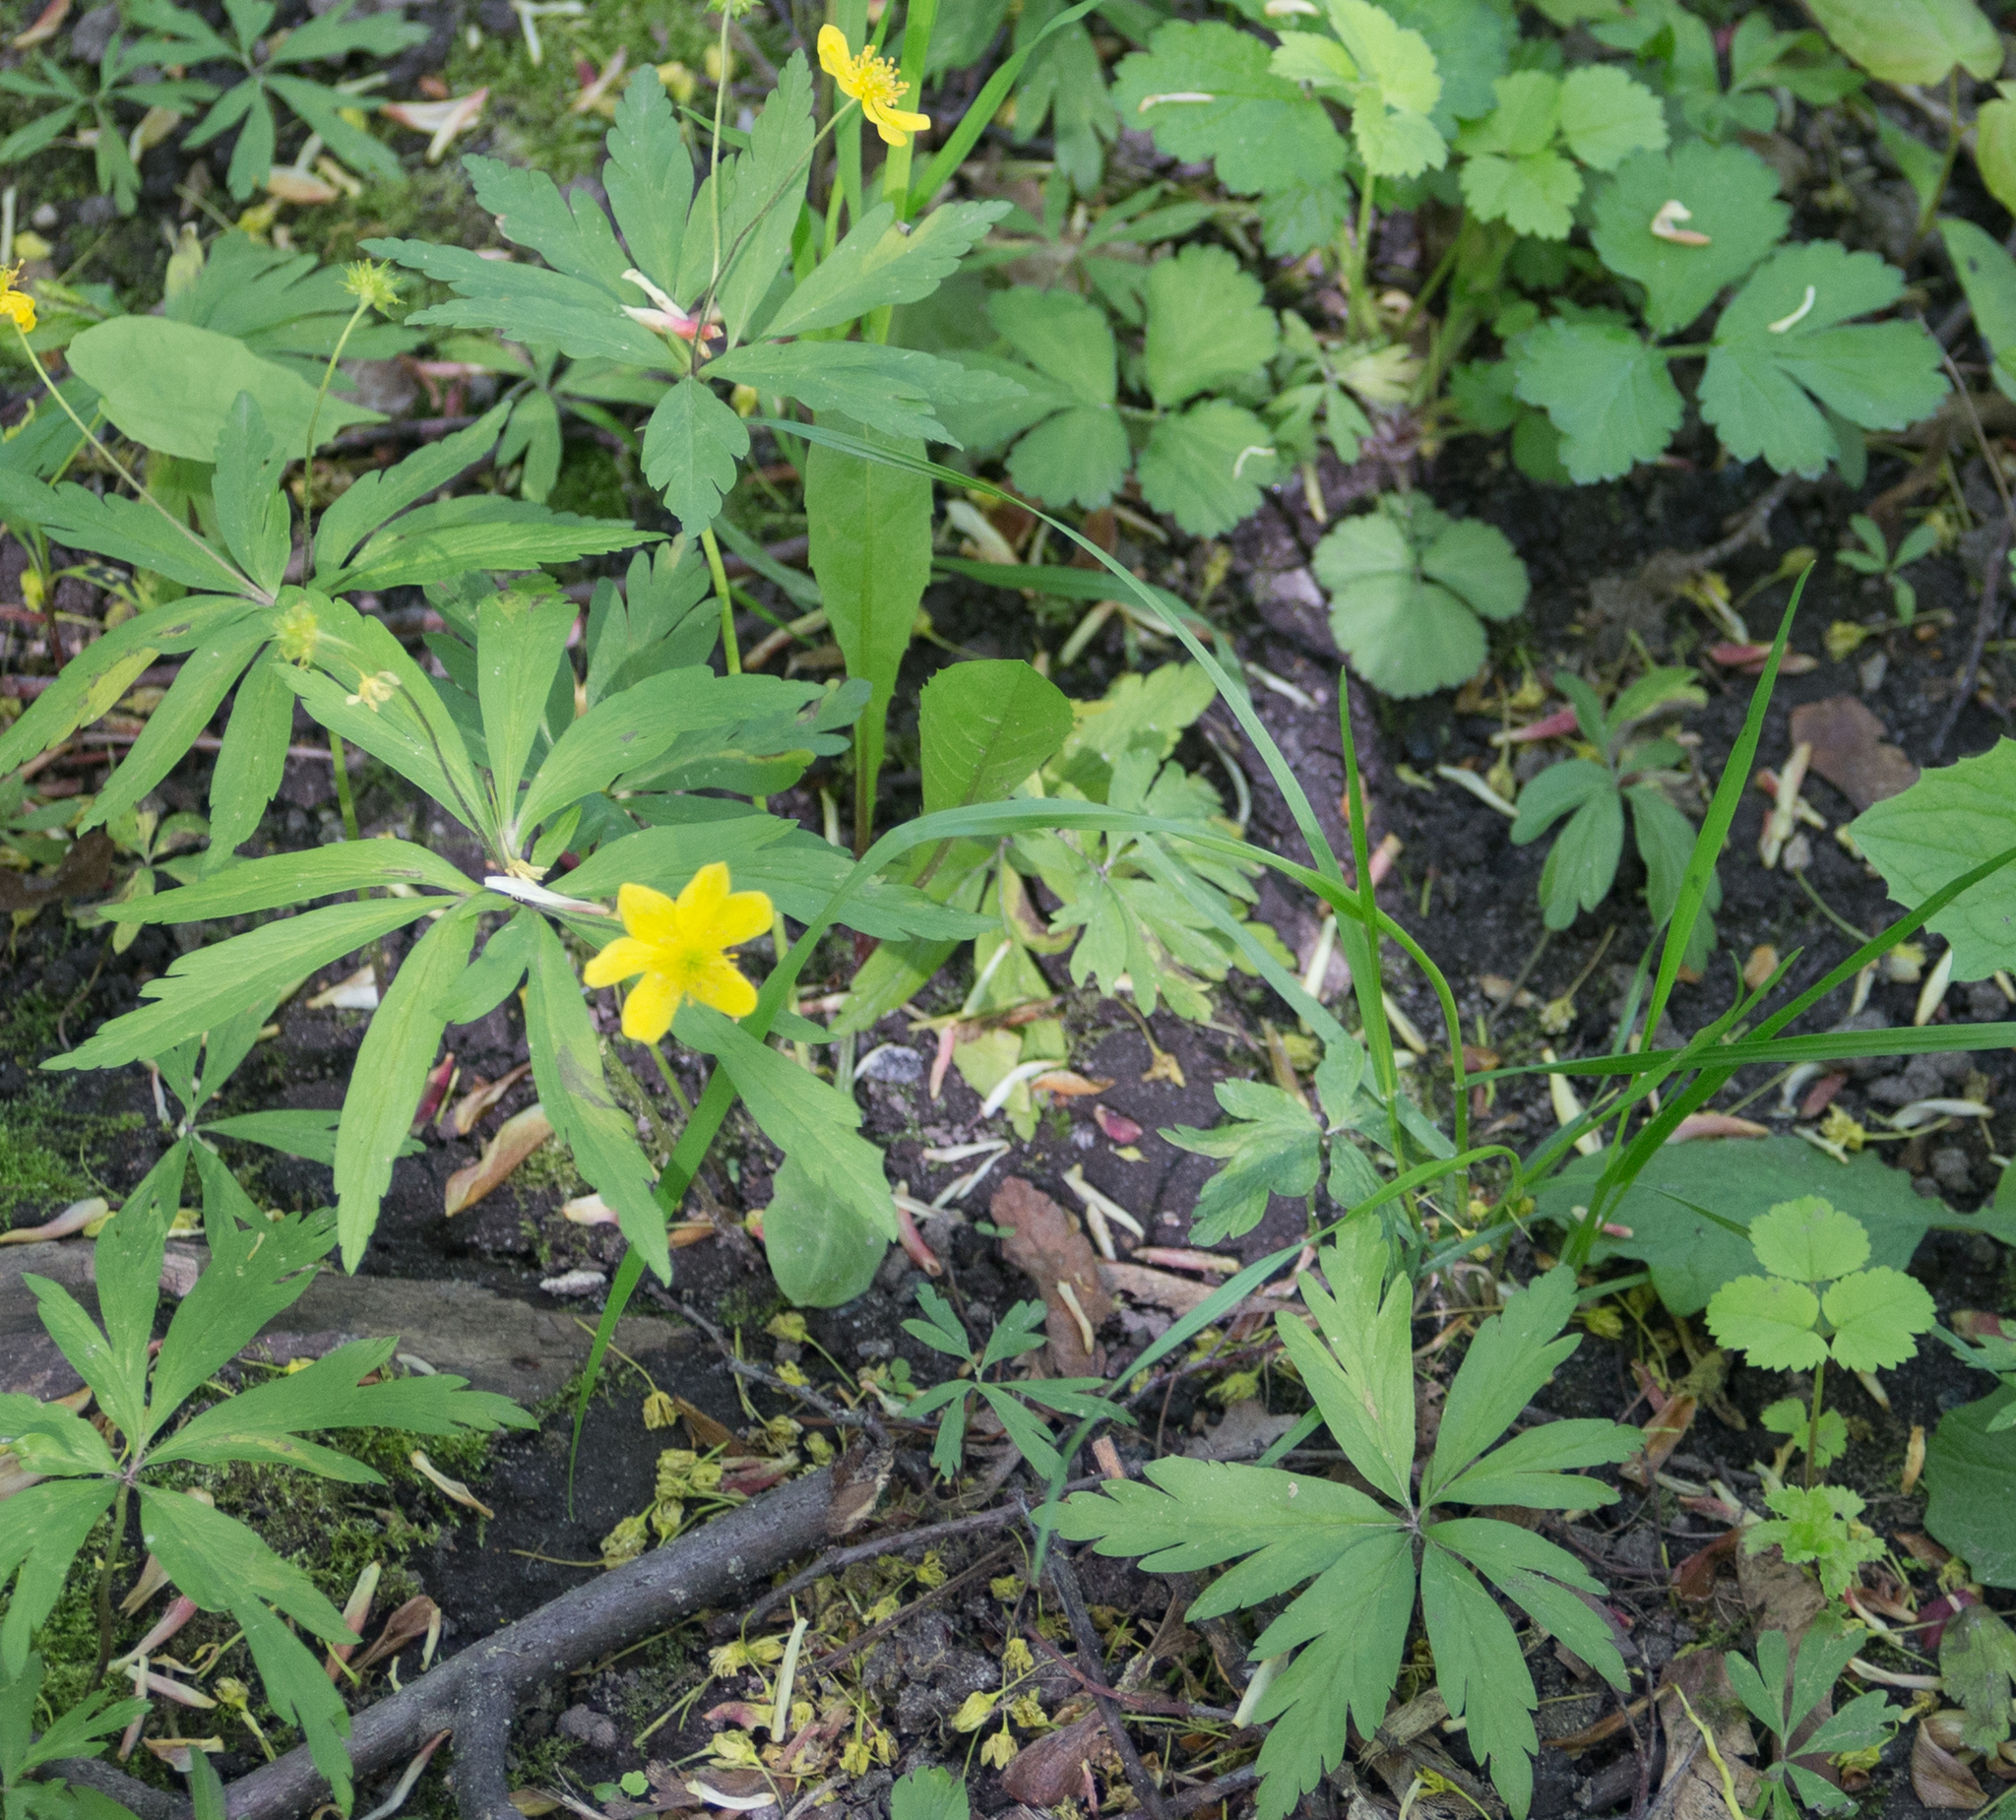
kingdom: Plantae
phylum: Tracheophyta
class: Magnoliopsida
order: Ranunculales
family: Ranunculaceae
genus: Anemone
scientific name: Anemone ranunculoides
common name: Yellow anemone
